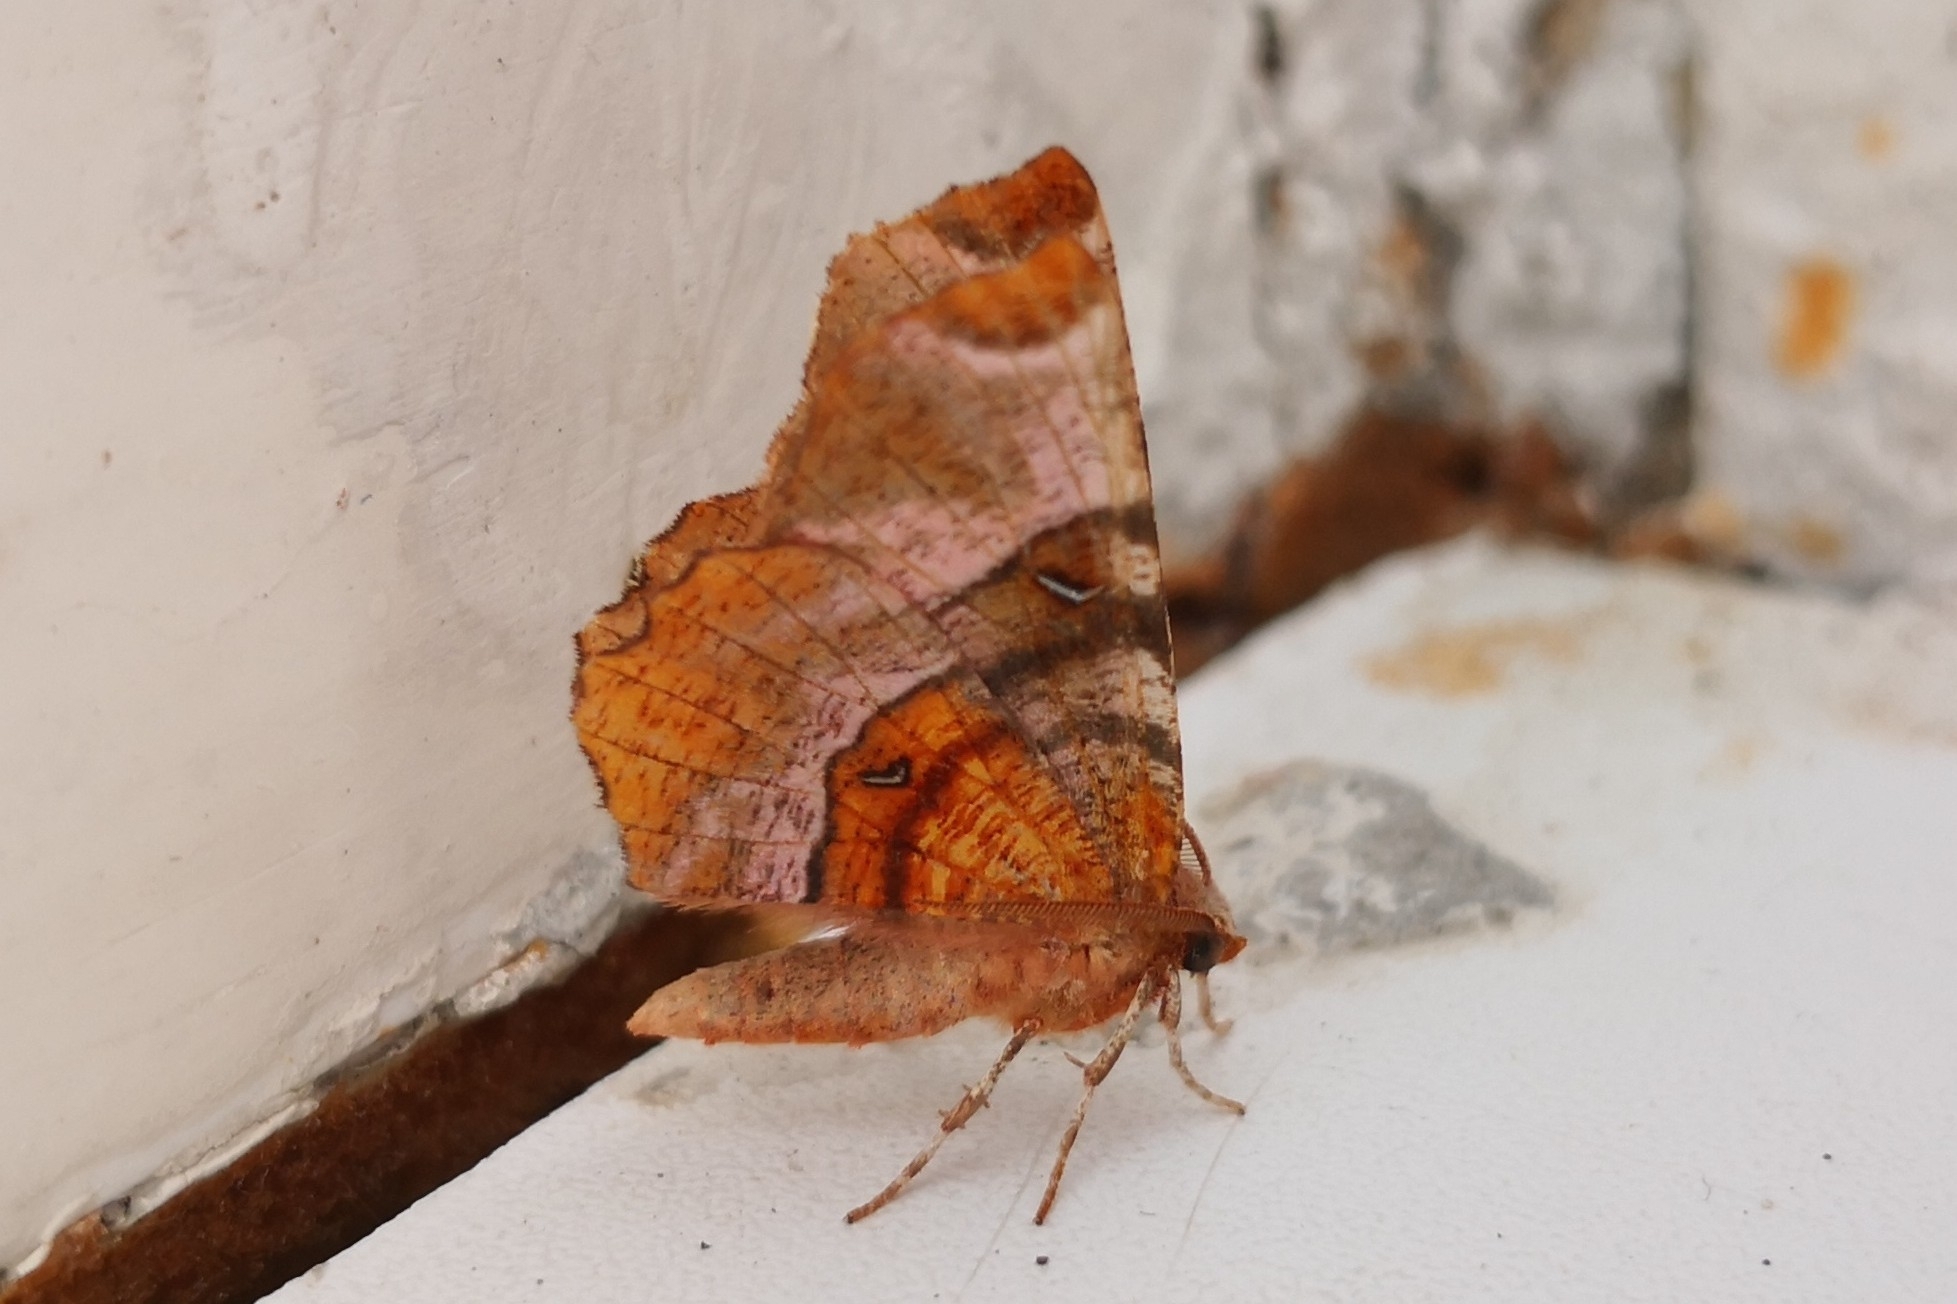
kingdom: Animalia
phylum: Arthropoda
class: Insecta
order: Lepidoptera
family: Geometridae
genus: Selenia
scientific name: Selenia tetralunaria
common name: Purple thorn
